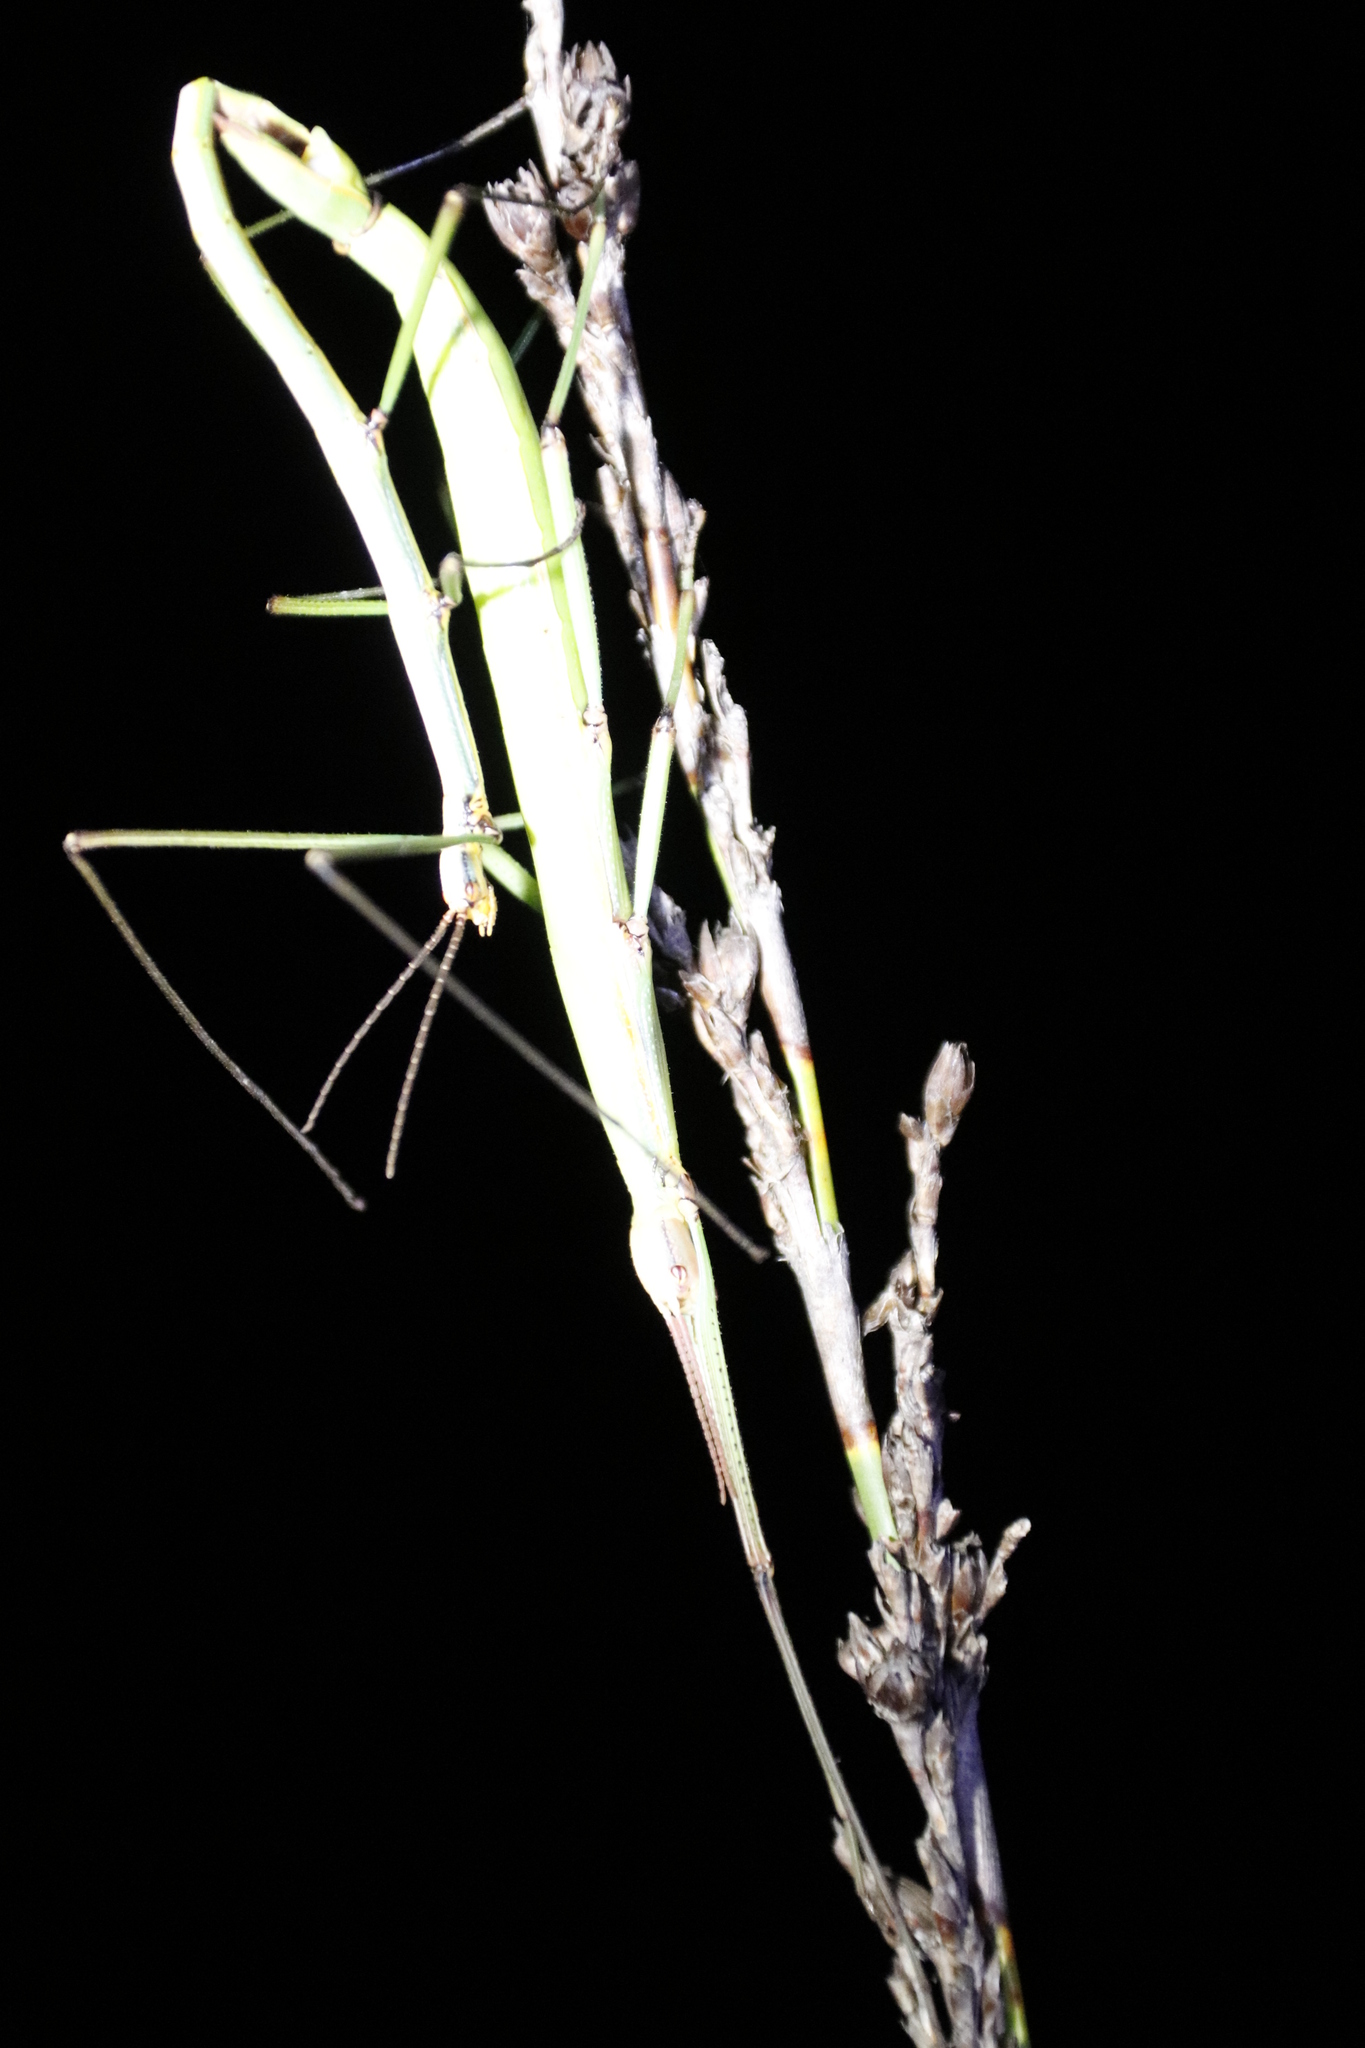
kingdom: Animalia
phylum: Arthropoda
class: Insecta
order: Phasmida
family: Bacillidae
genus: Macynia
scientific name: Macynia labiata
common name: Thunberg's stick insect
